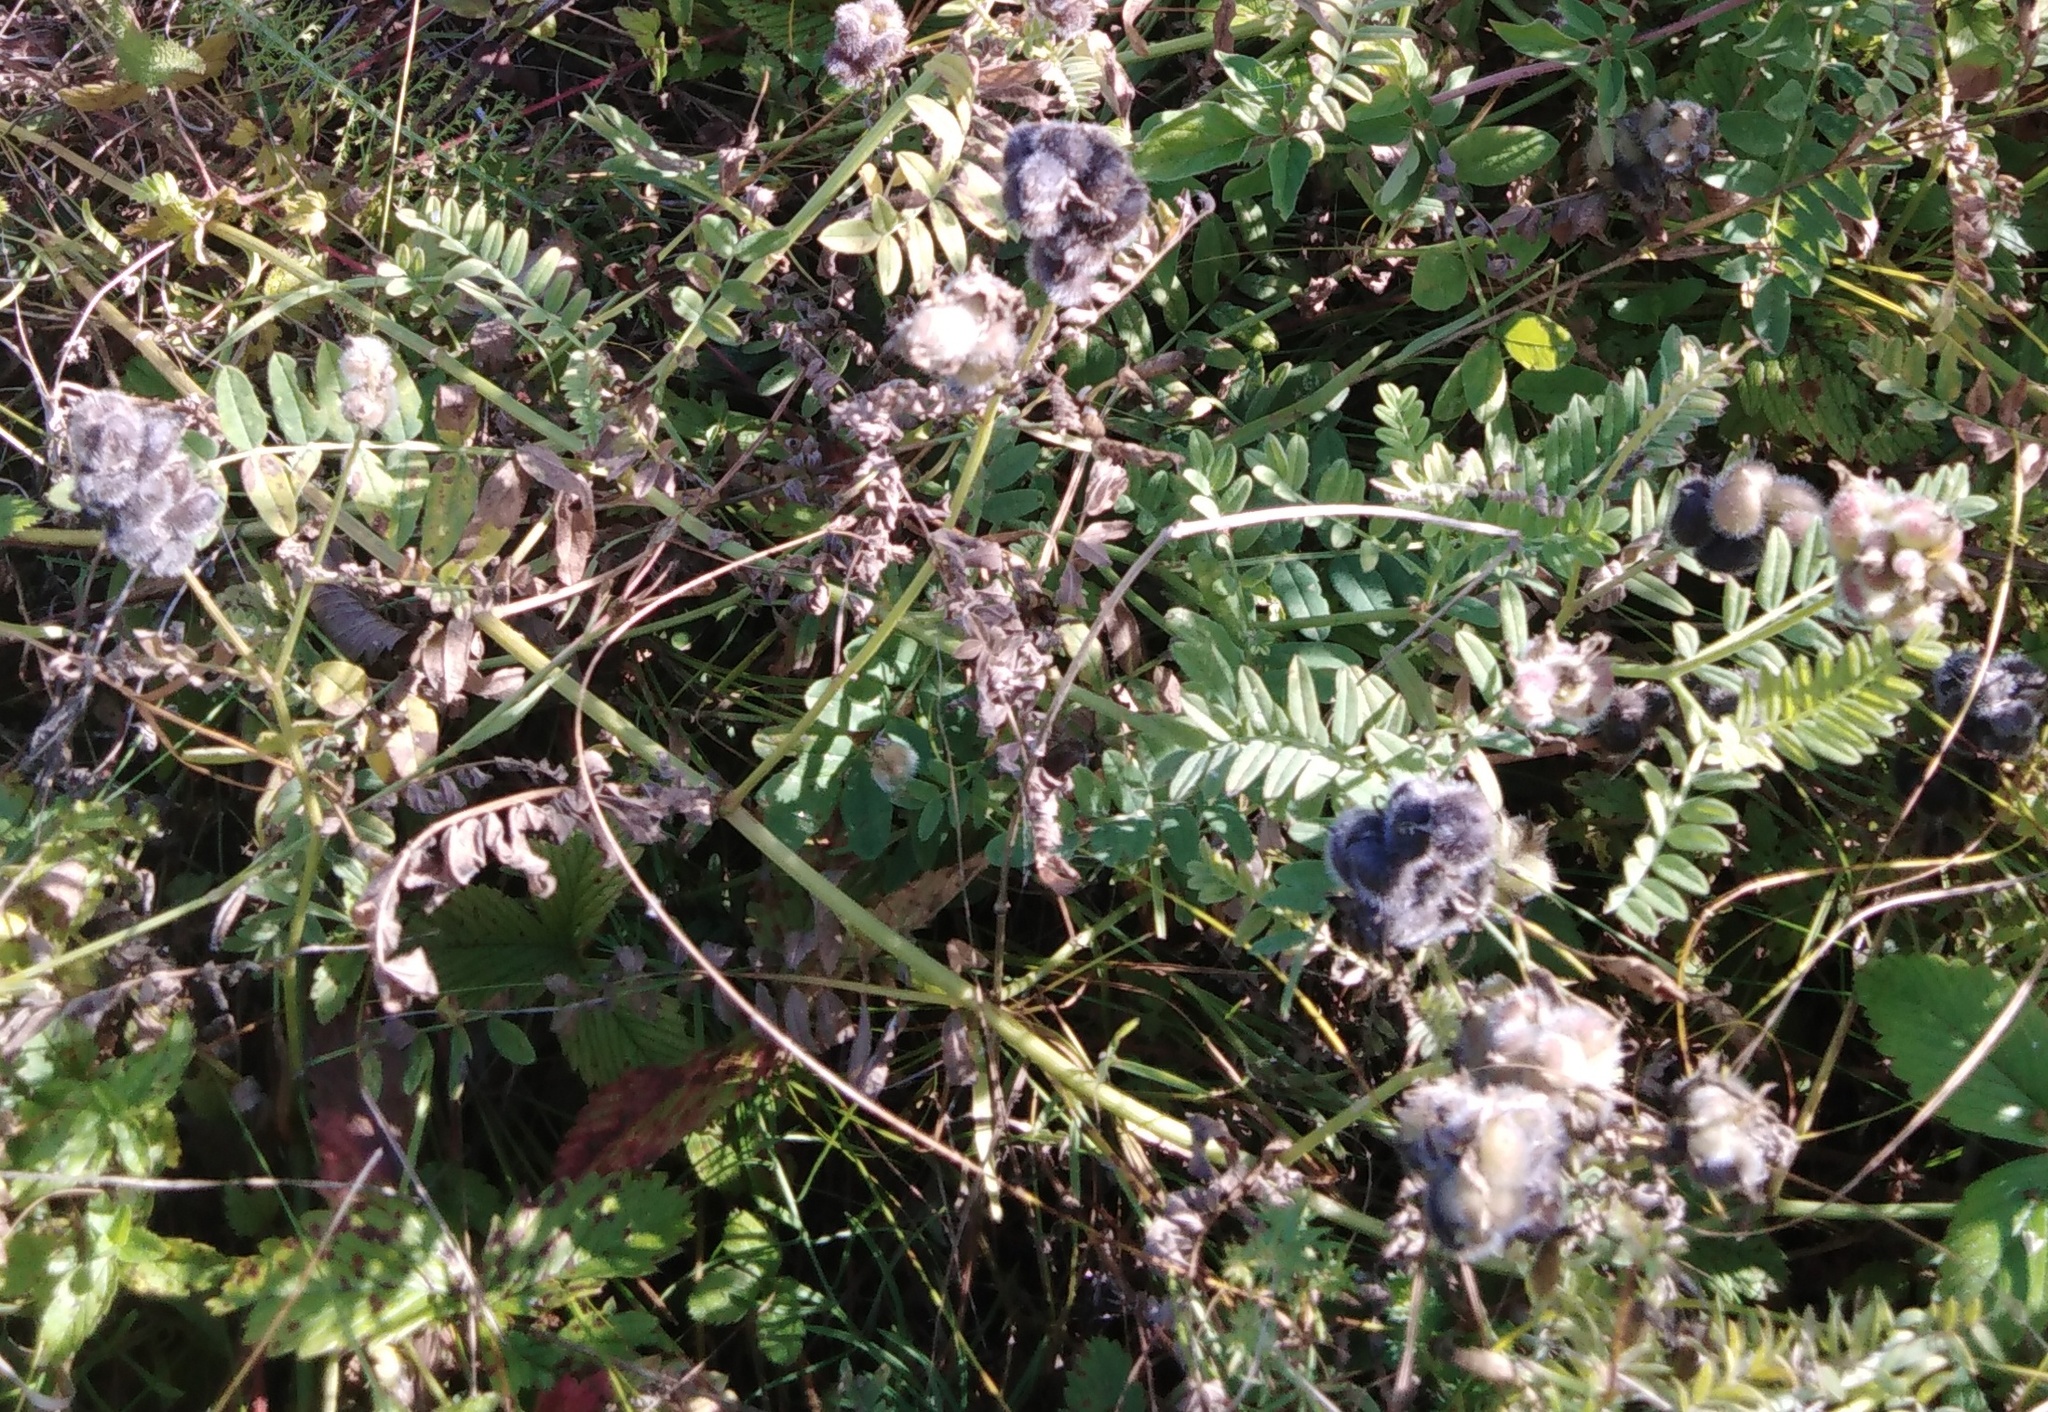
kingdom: Plantae
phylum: Tracheophyta
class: Magnoliopsida
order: Fabales
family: Fabaceae
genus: Astragalus
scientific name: Astragalus cicer
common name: Chick-pea milk-vetch
